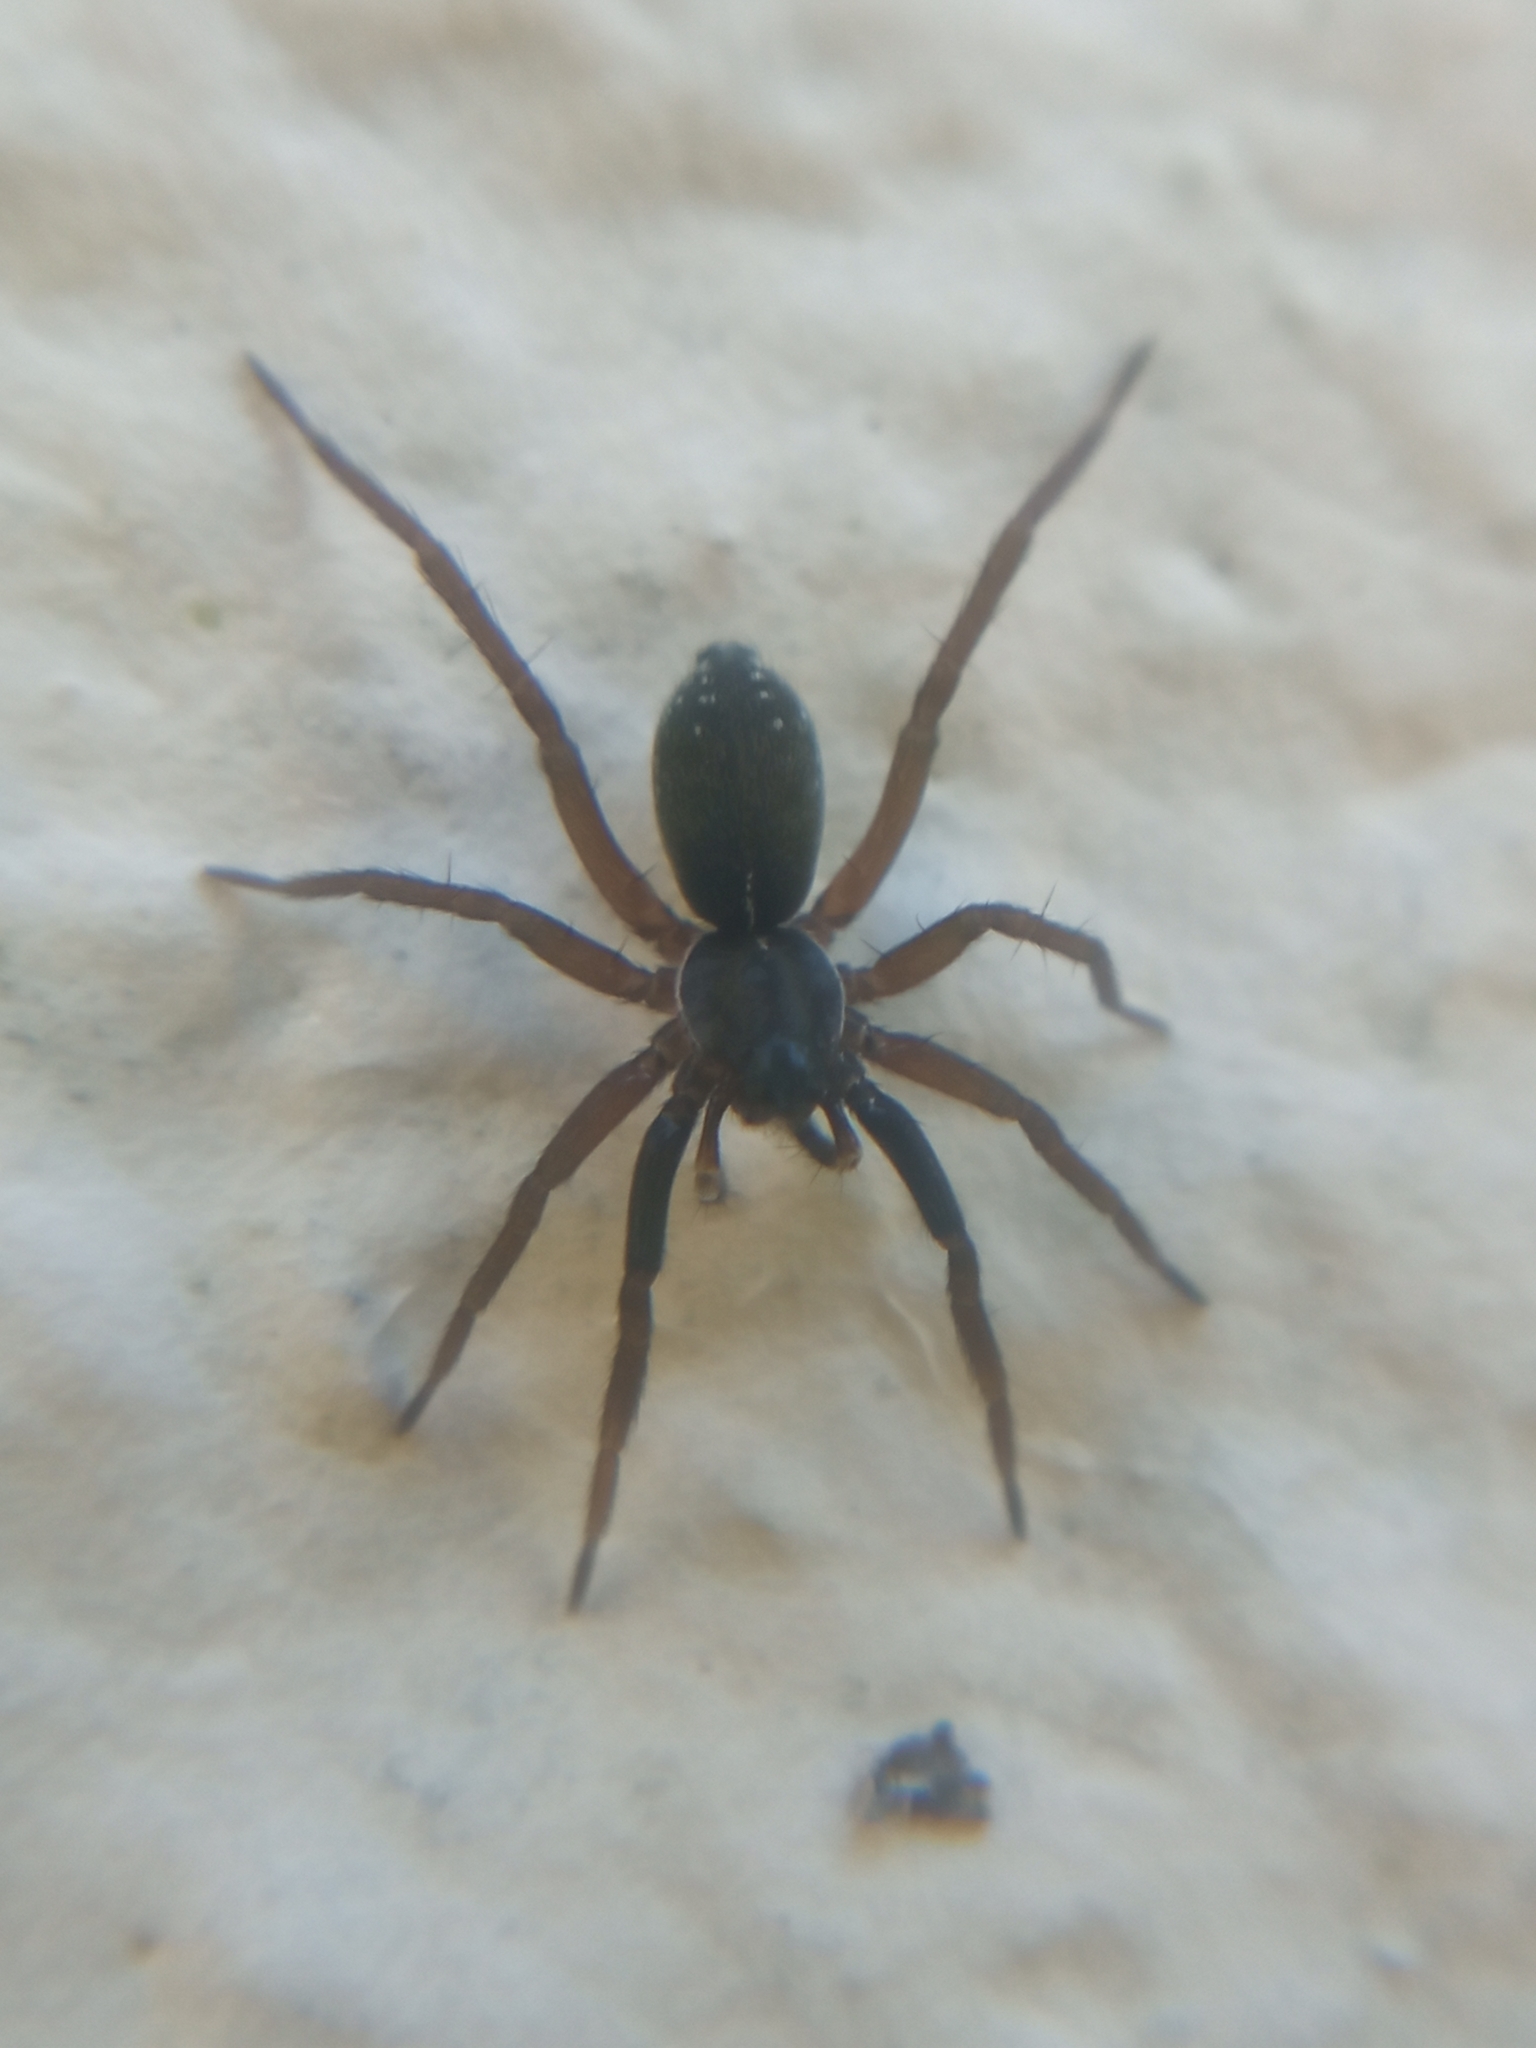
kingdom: Animalia
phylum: Arthropoda
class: Arachnida
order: Araneae
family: Lycosidae
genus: Aulonia
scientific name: Aulonia albimana
